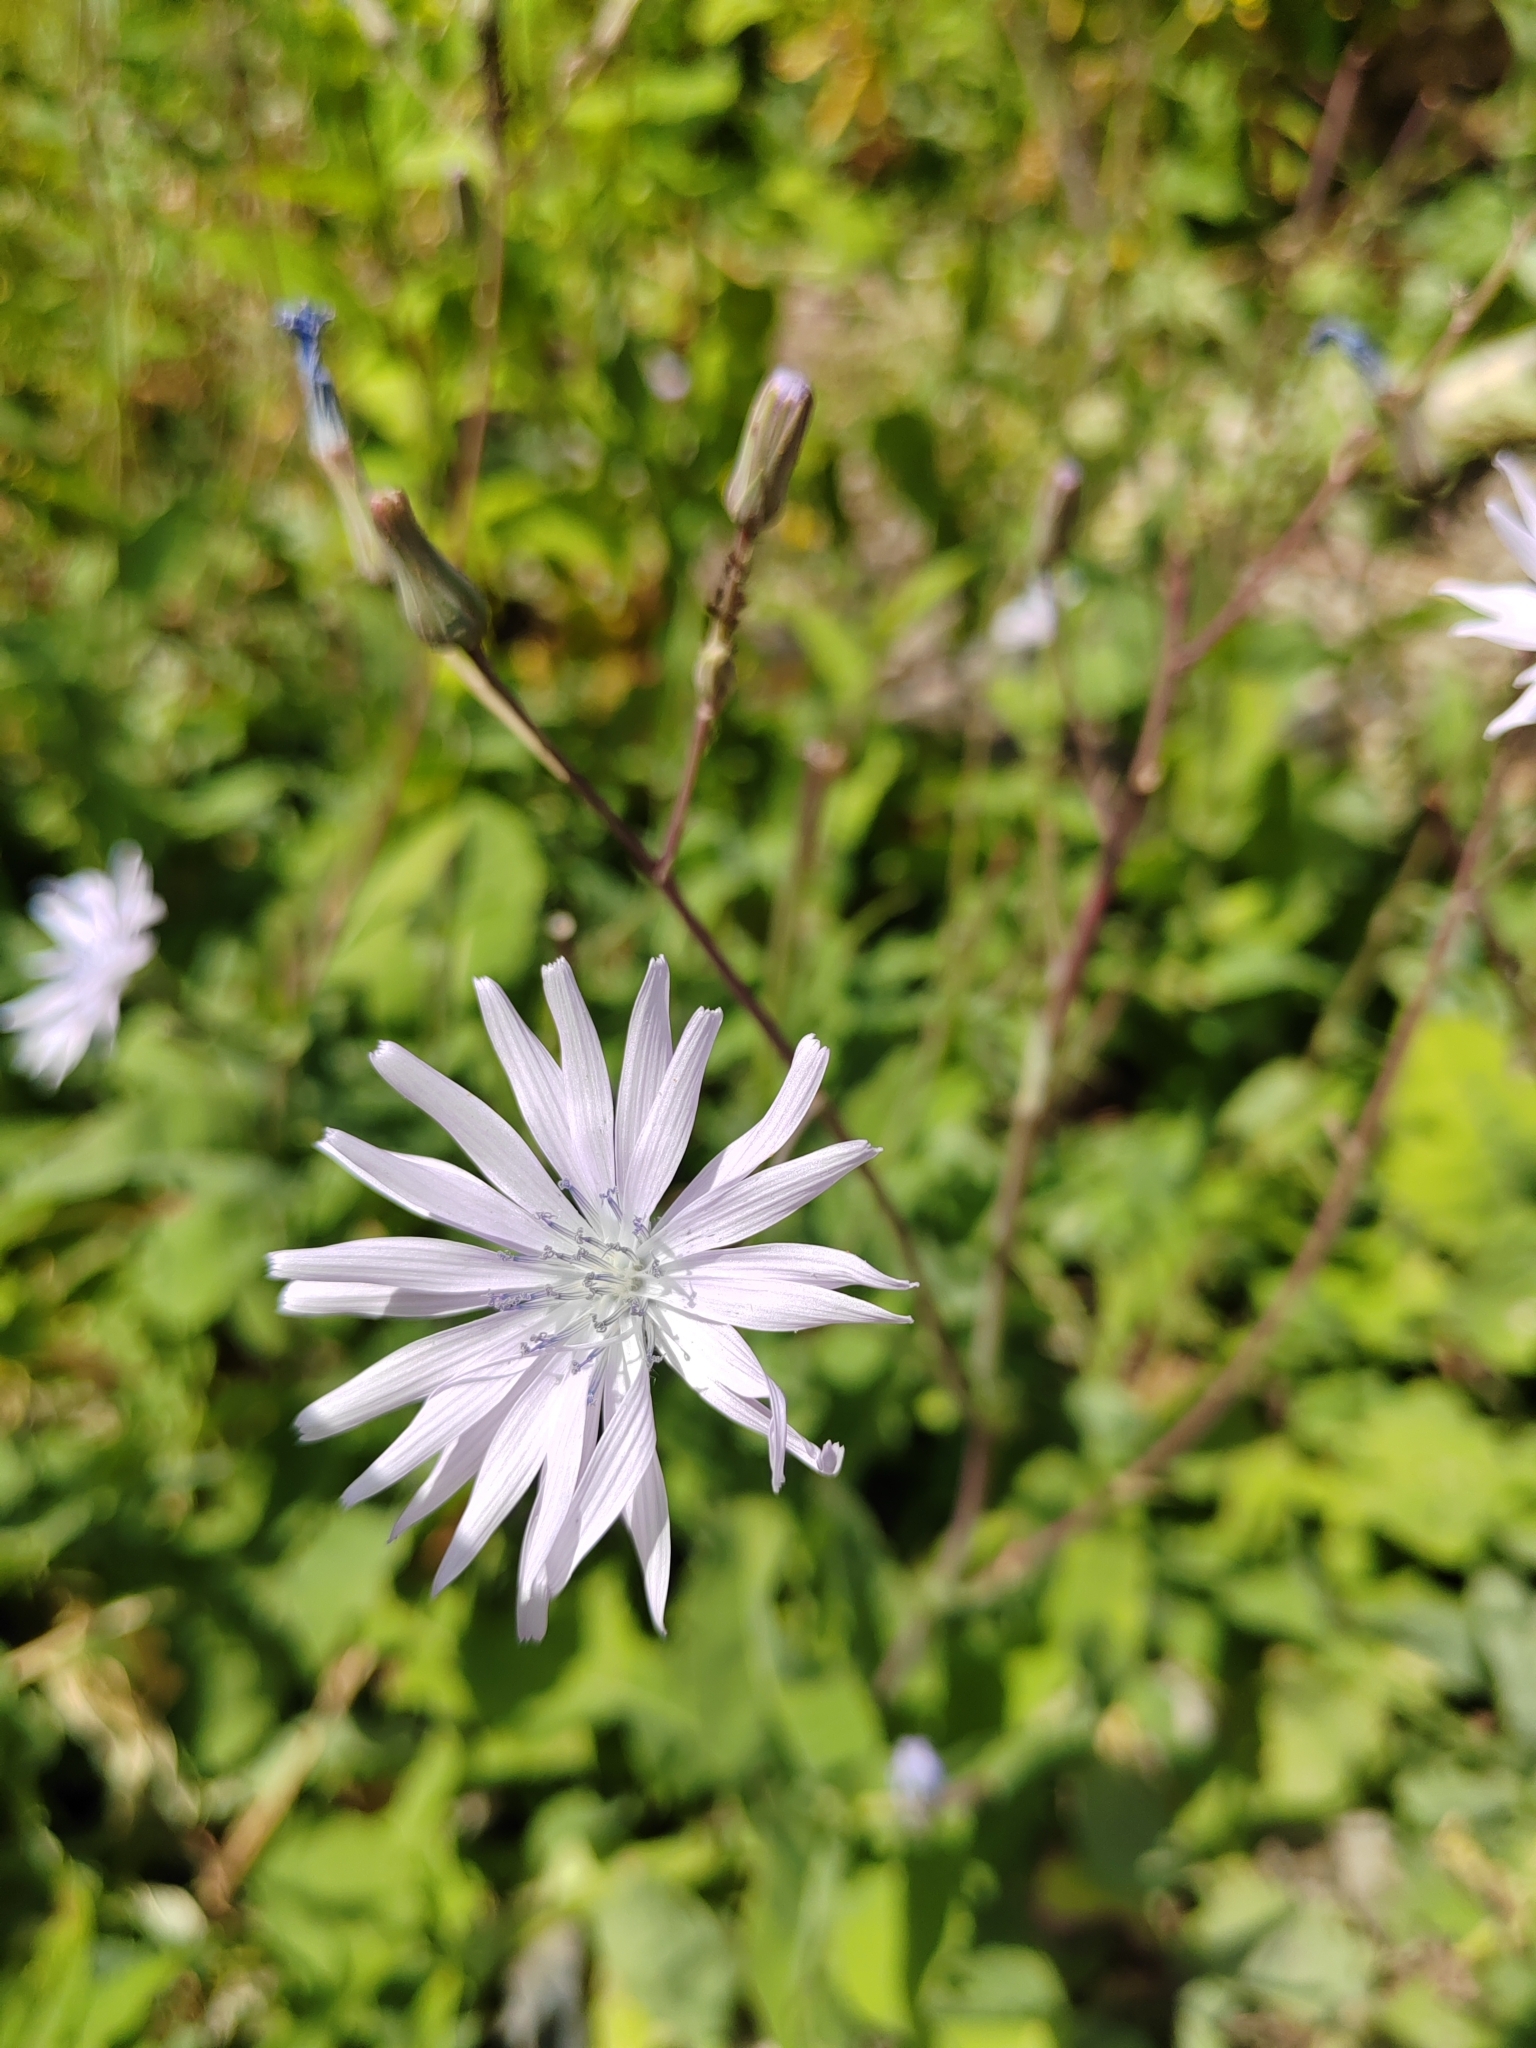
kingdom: Plantae
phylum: Tracheophyta
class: Magnoliopsida
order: Asterales
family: Asteraceae
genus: Lactuca
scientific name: Lactuca racemosa
